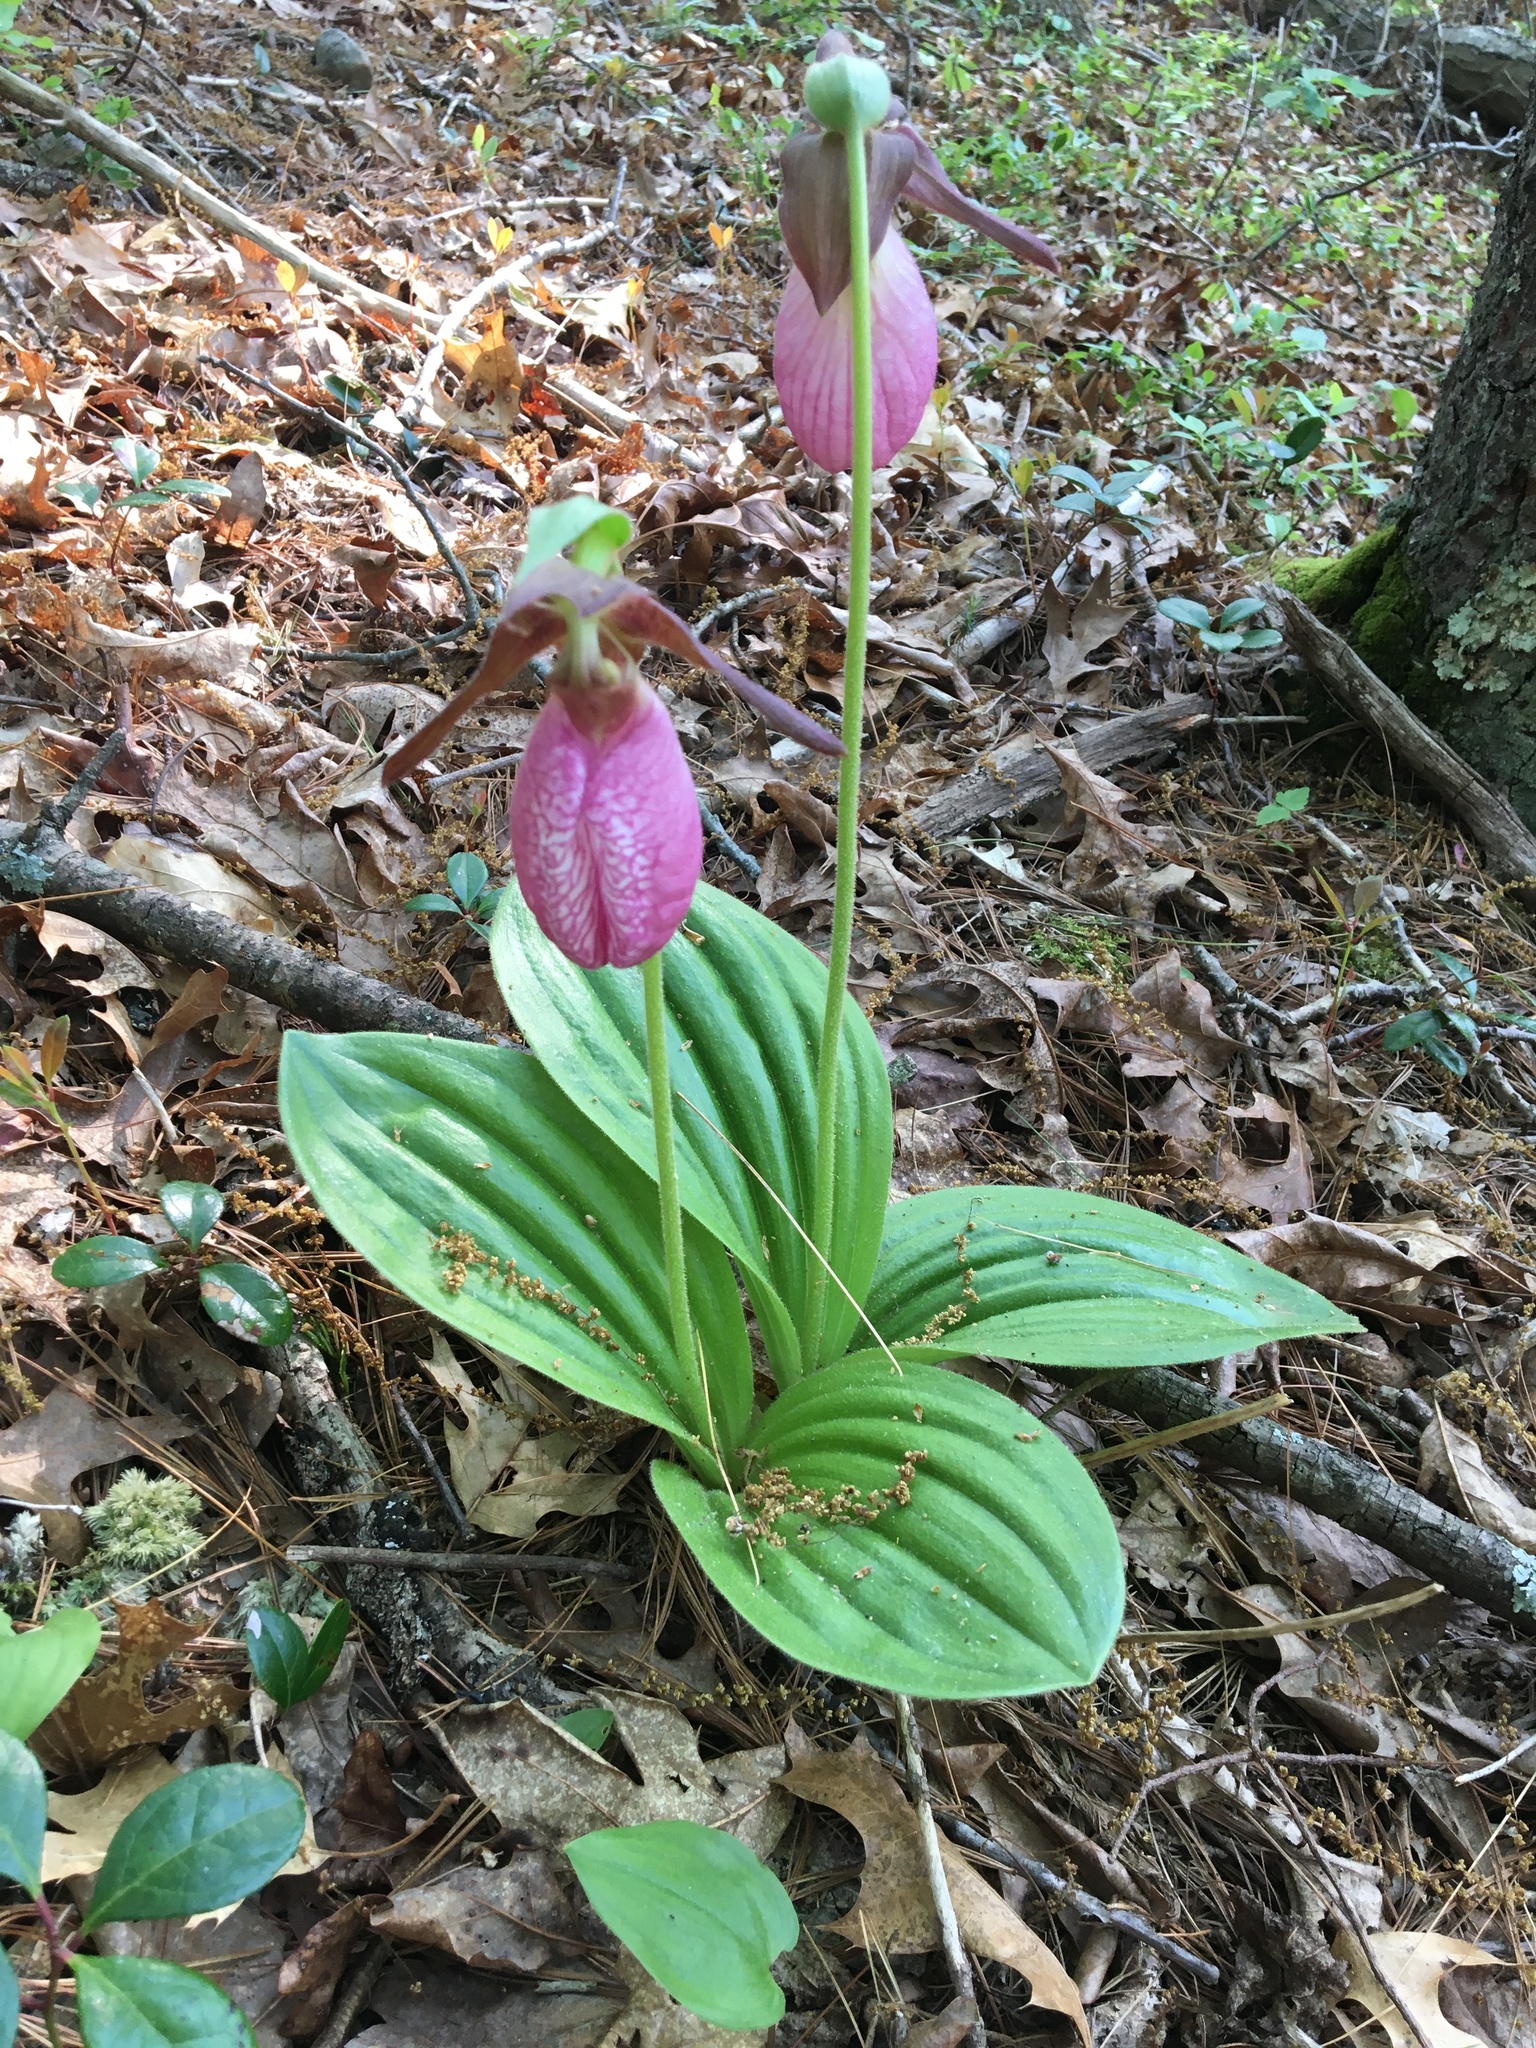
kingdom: Plantae
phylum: Tracheophyta
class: Liliopsida
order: Asparagales
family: Orchidaceae
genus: Cypripedium
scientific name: Cypripedium acaule
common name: Pink lady's-slipper
